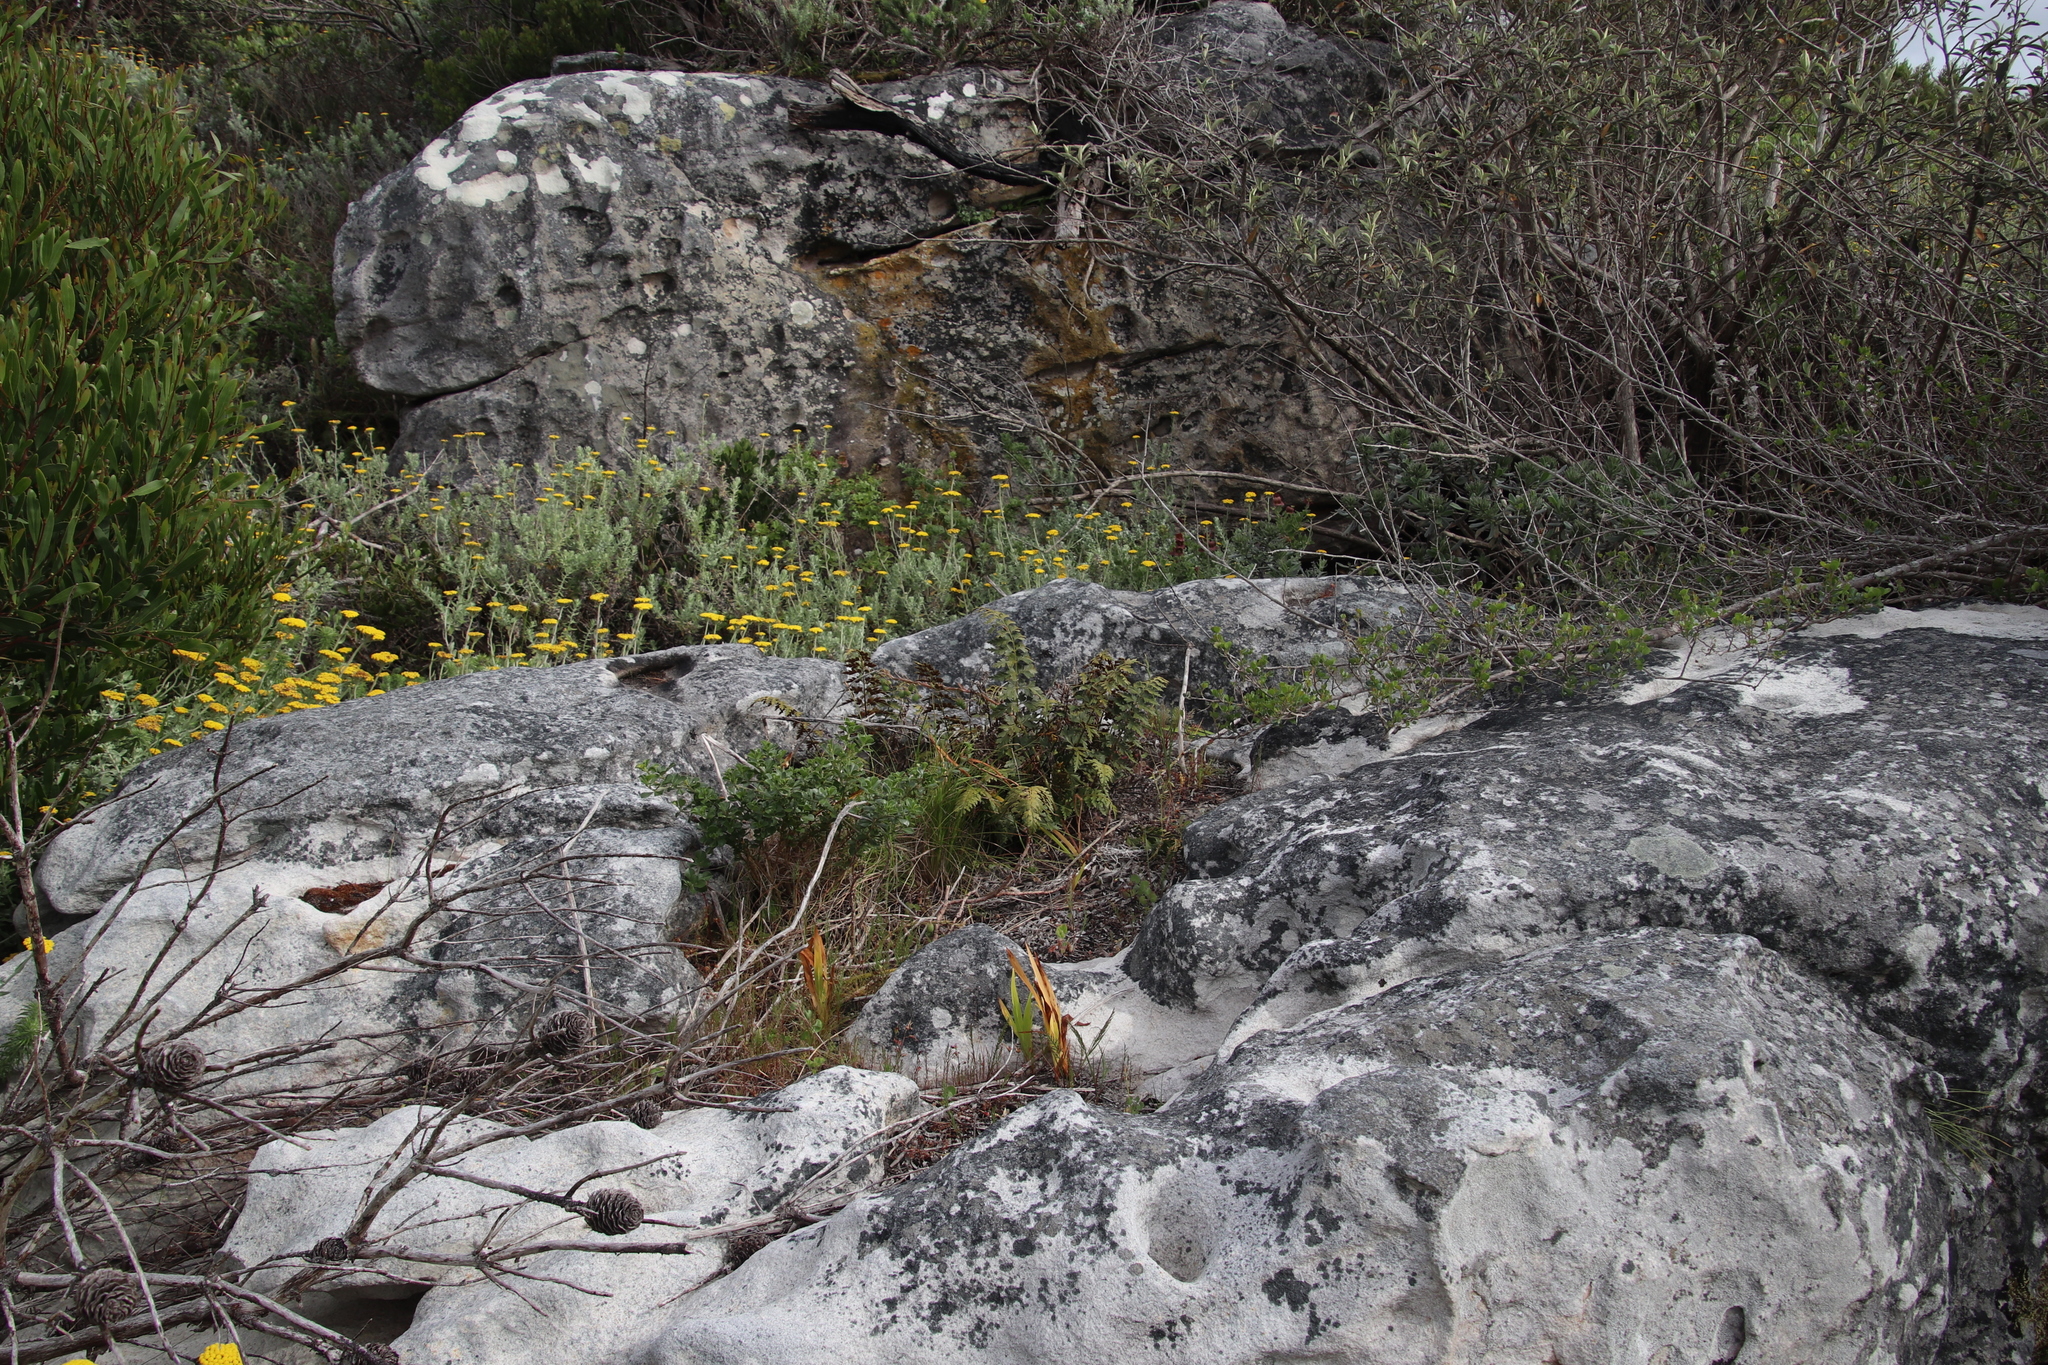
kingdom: Plantae
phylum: Tracheophyta
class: Polypodiopsida
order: Polypodiales
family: Aspleniaceae
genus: Asplenium
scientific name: Asplenium aethiopicum
